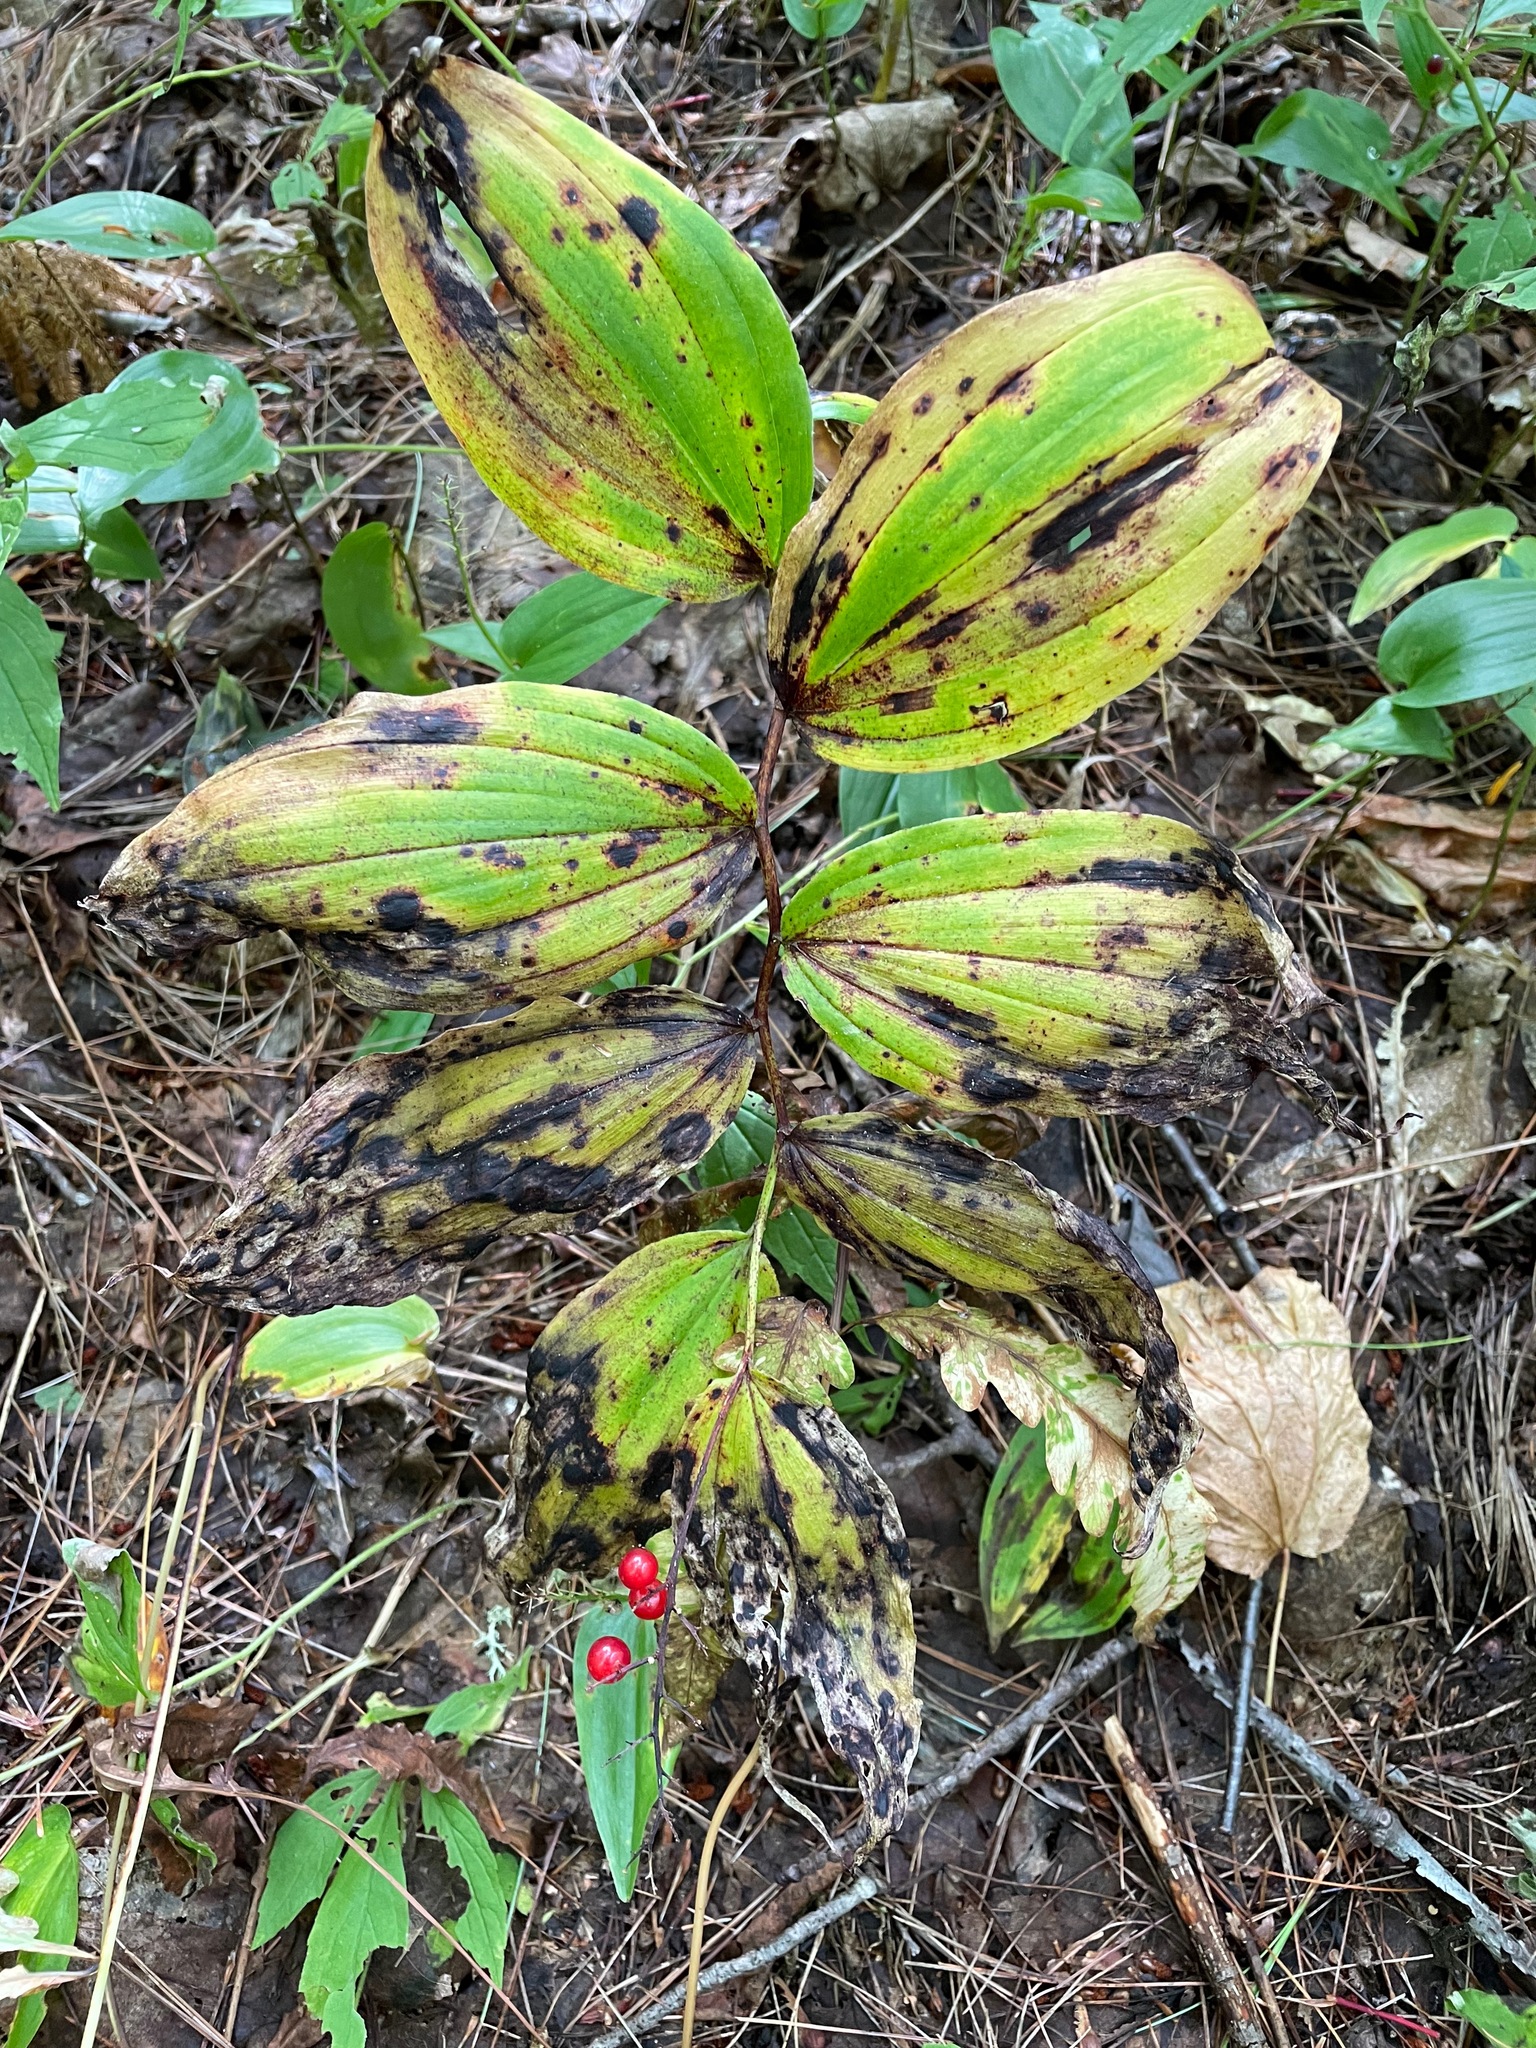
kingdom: Plantae
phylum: Tracheophyta
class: Liliopsida
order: Asparagales
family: Asparagaceae
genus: Maianthemum
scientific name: Maianthemum racemosum
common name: False spikenard
